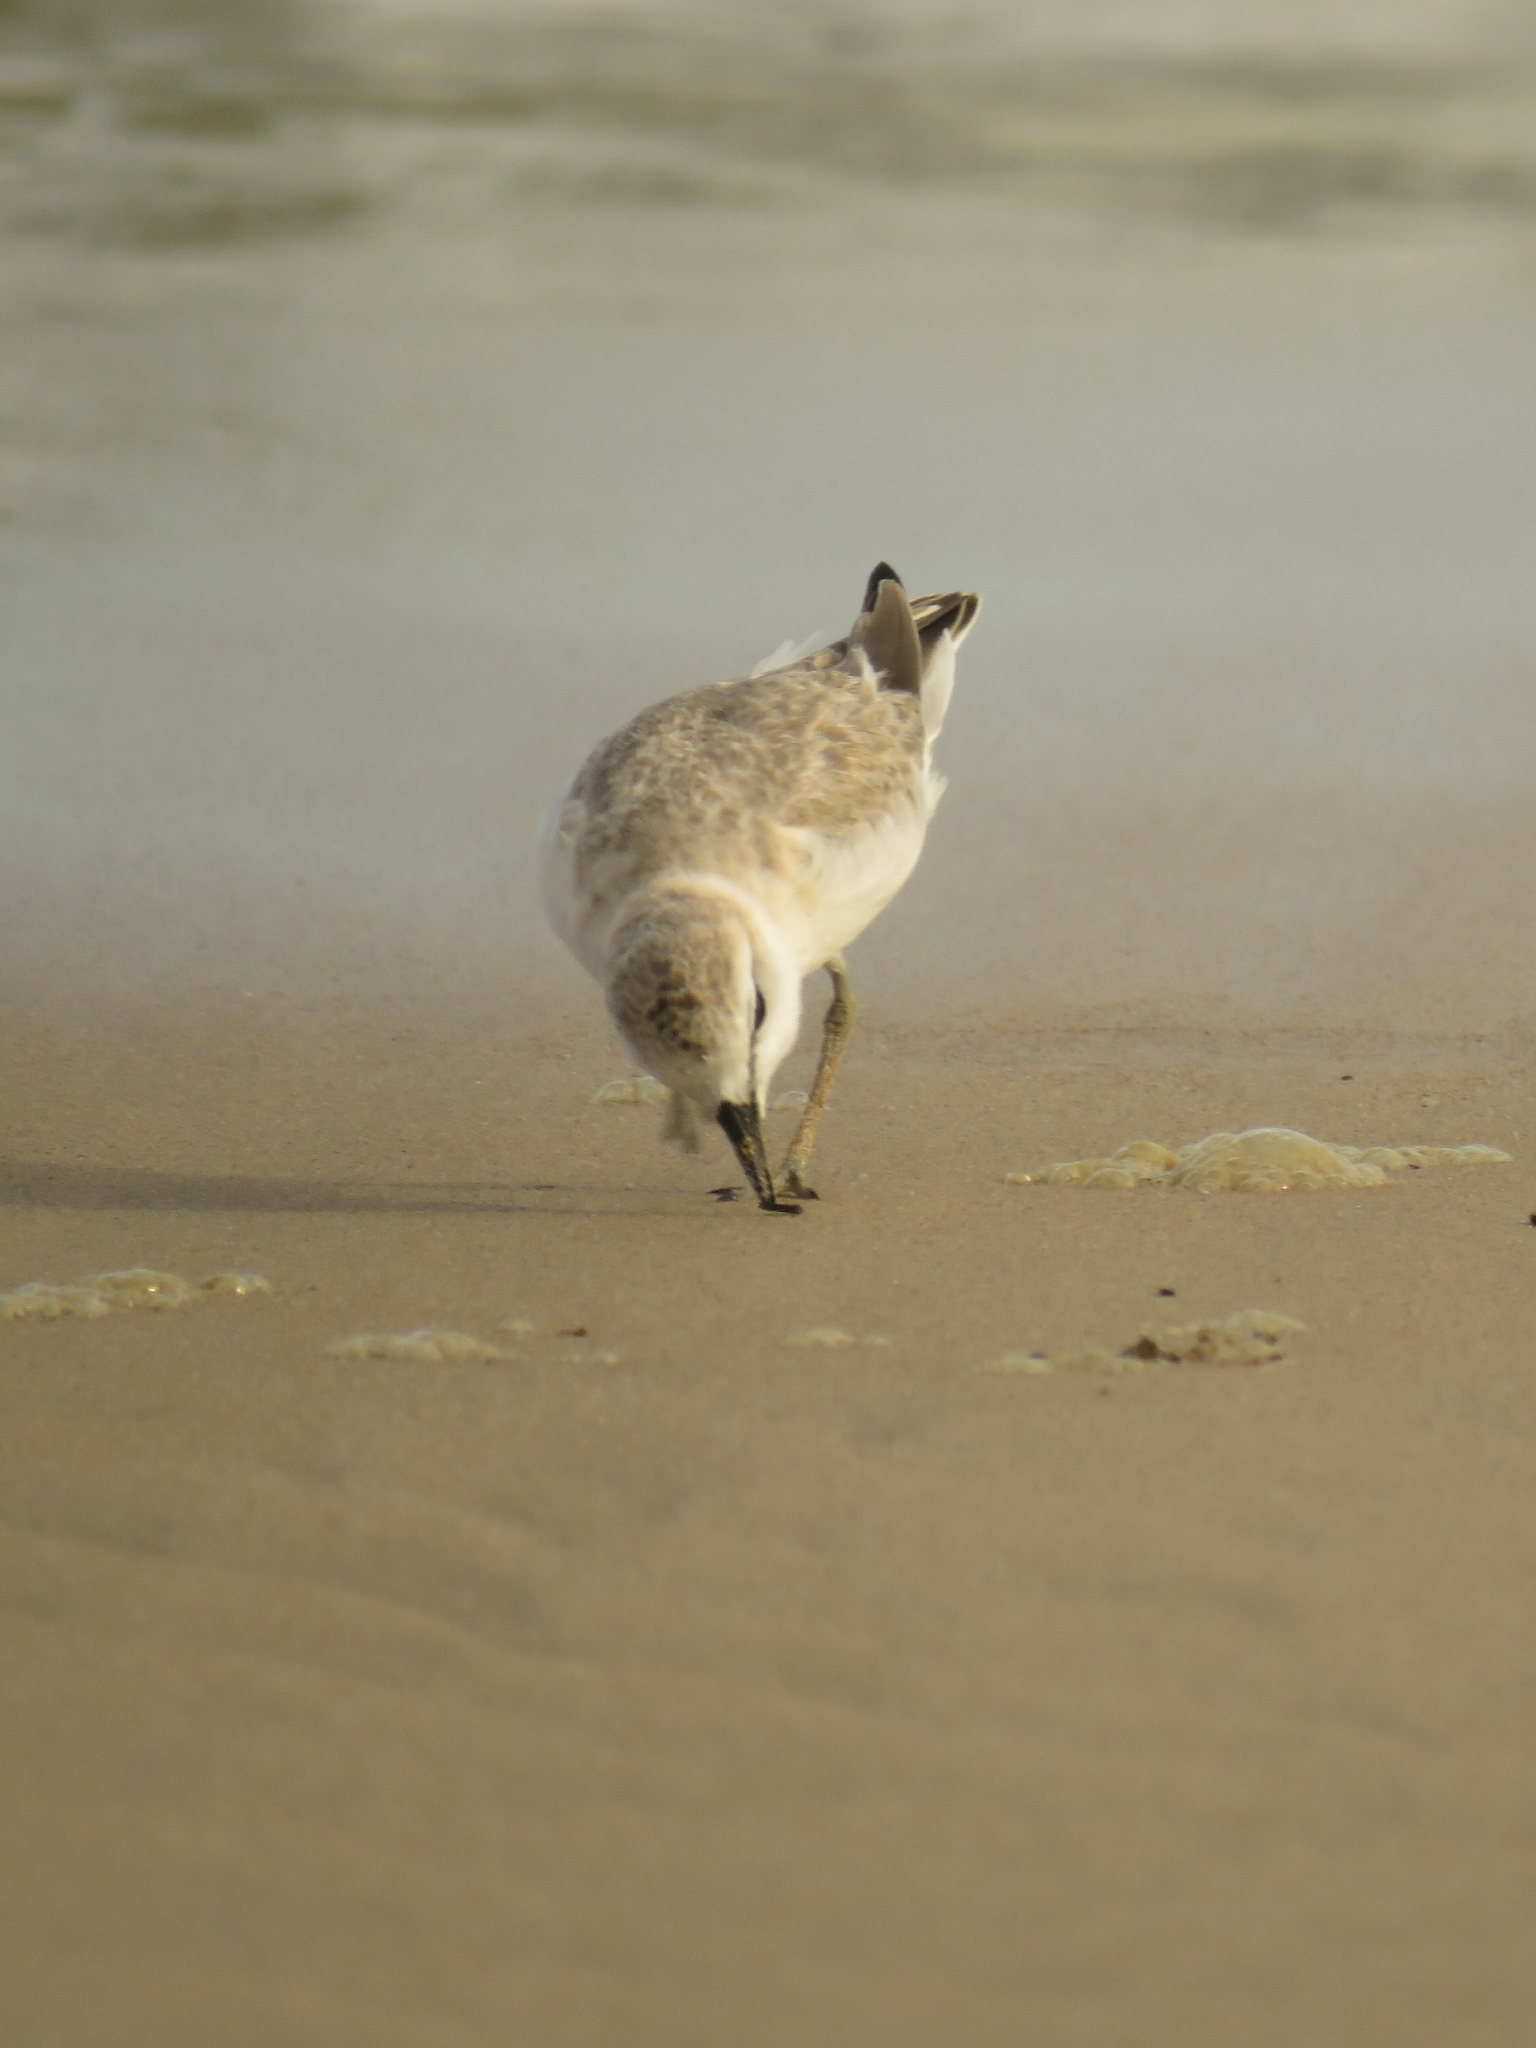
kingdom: Animalia
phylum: Chordata
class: Aves
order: Charadriiformes
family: Charadriidae
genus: Anarhynchus
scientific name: Anarhynchus
